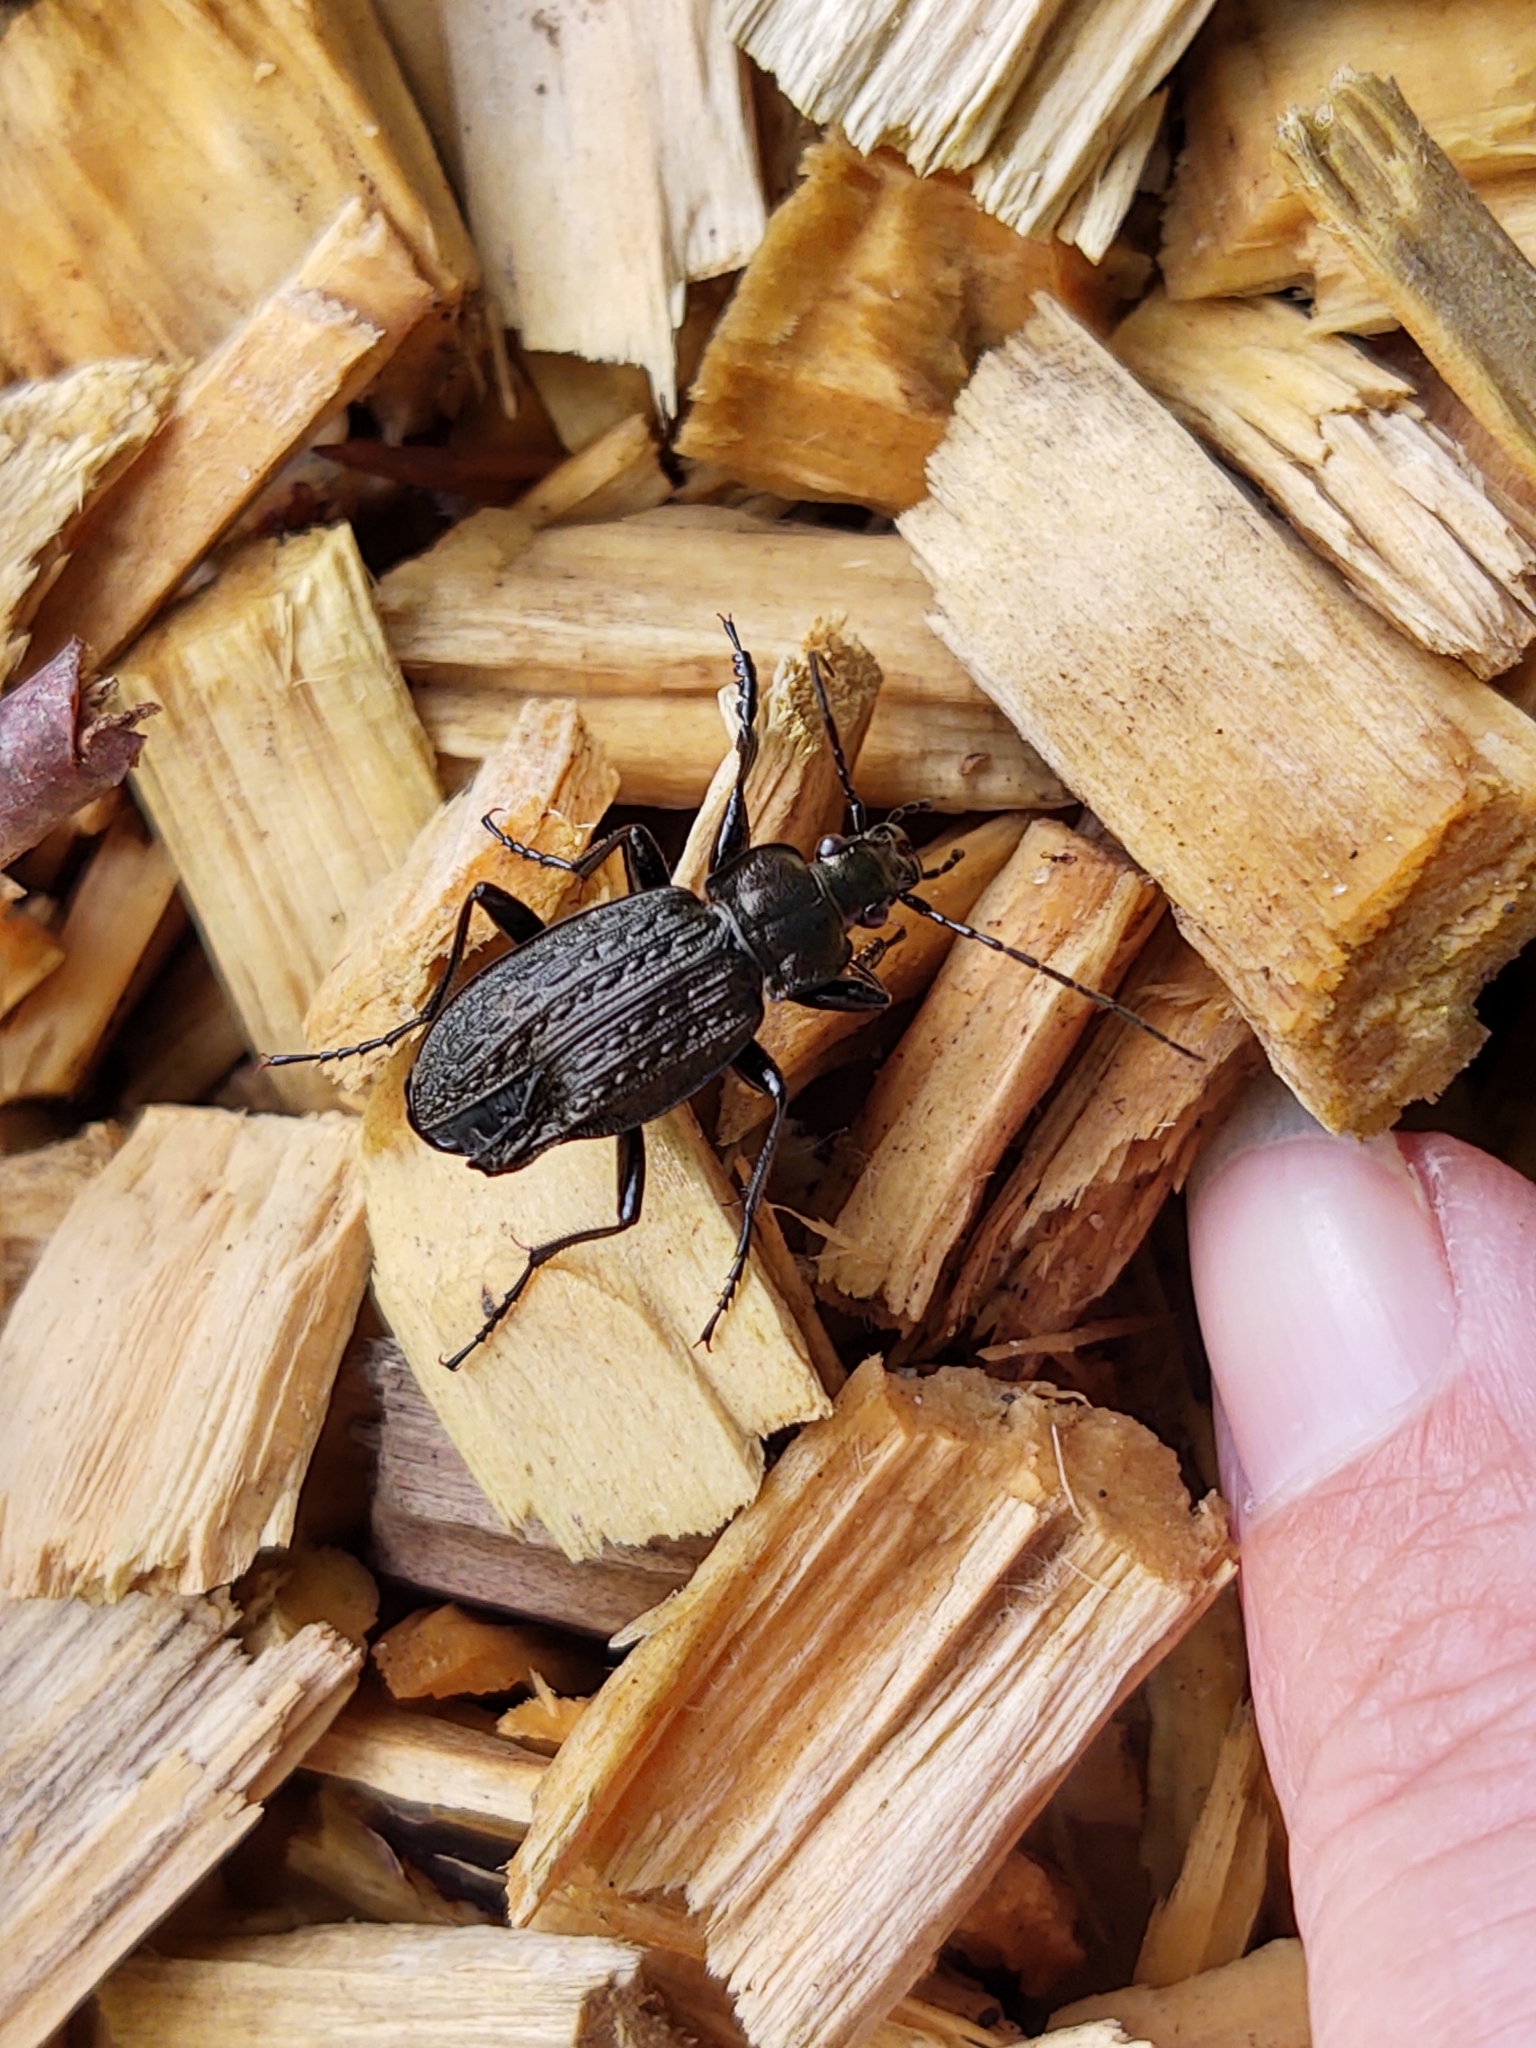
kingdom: Animalia
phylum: Arthropoda
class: Insecta
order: Coleoptera
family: Carabidae
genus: Carabus
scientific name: Carabus granulatus
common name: Granulate ground beetle
